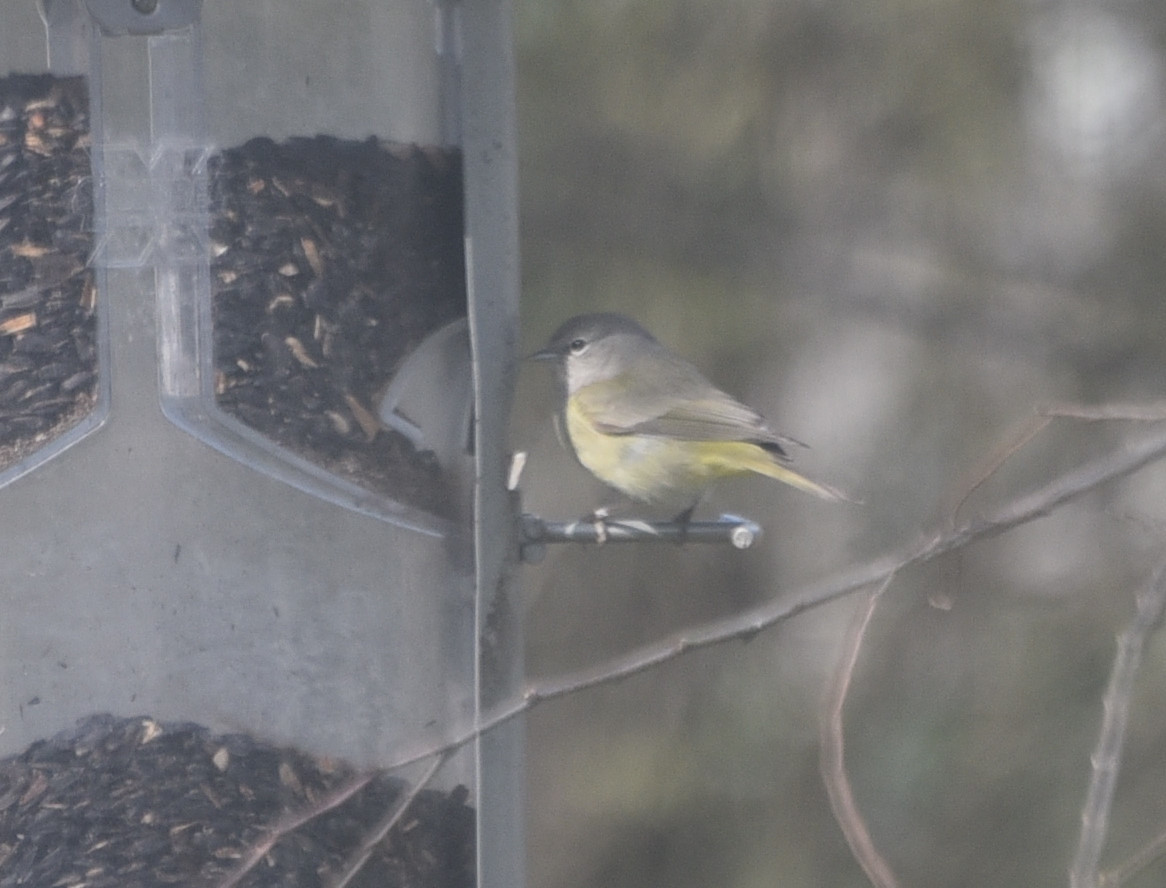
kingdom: Animalia
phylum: Chordata
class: Aves
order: Passeriformes
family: Parulidae
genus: Leiothlypis
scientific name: Leiothlypis celata
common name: Orange-crowned warbler
